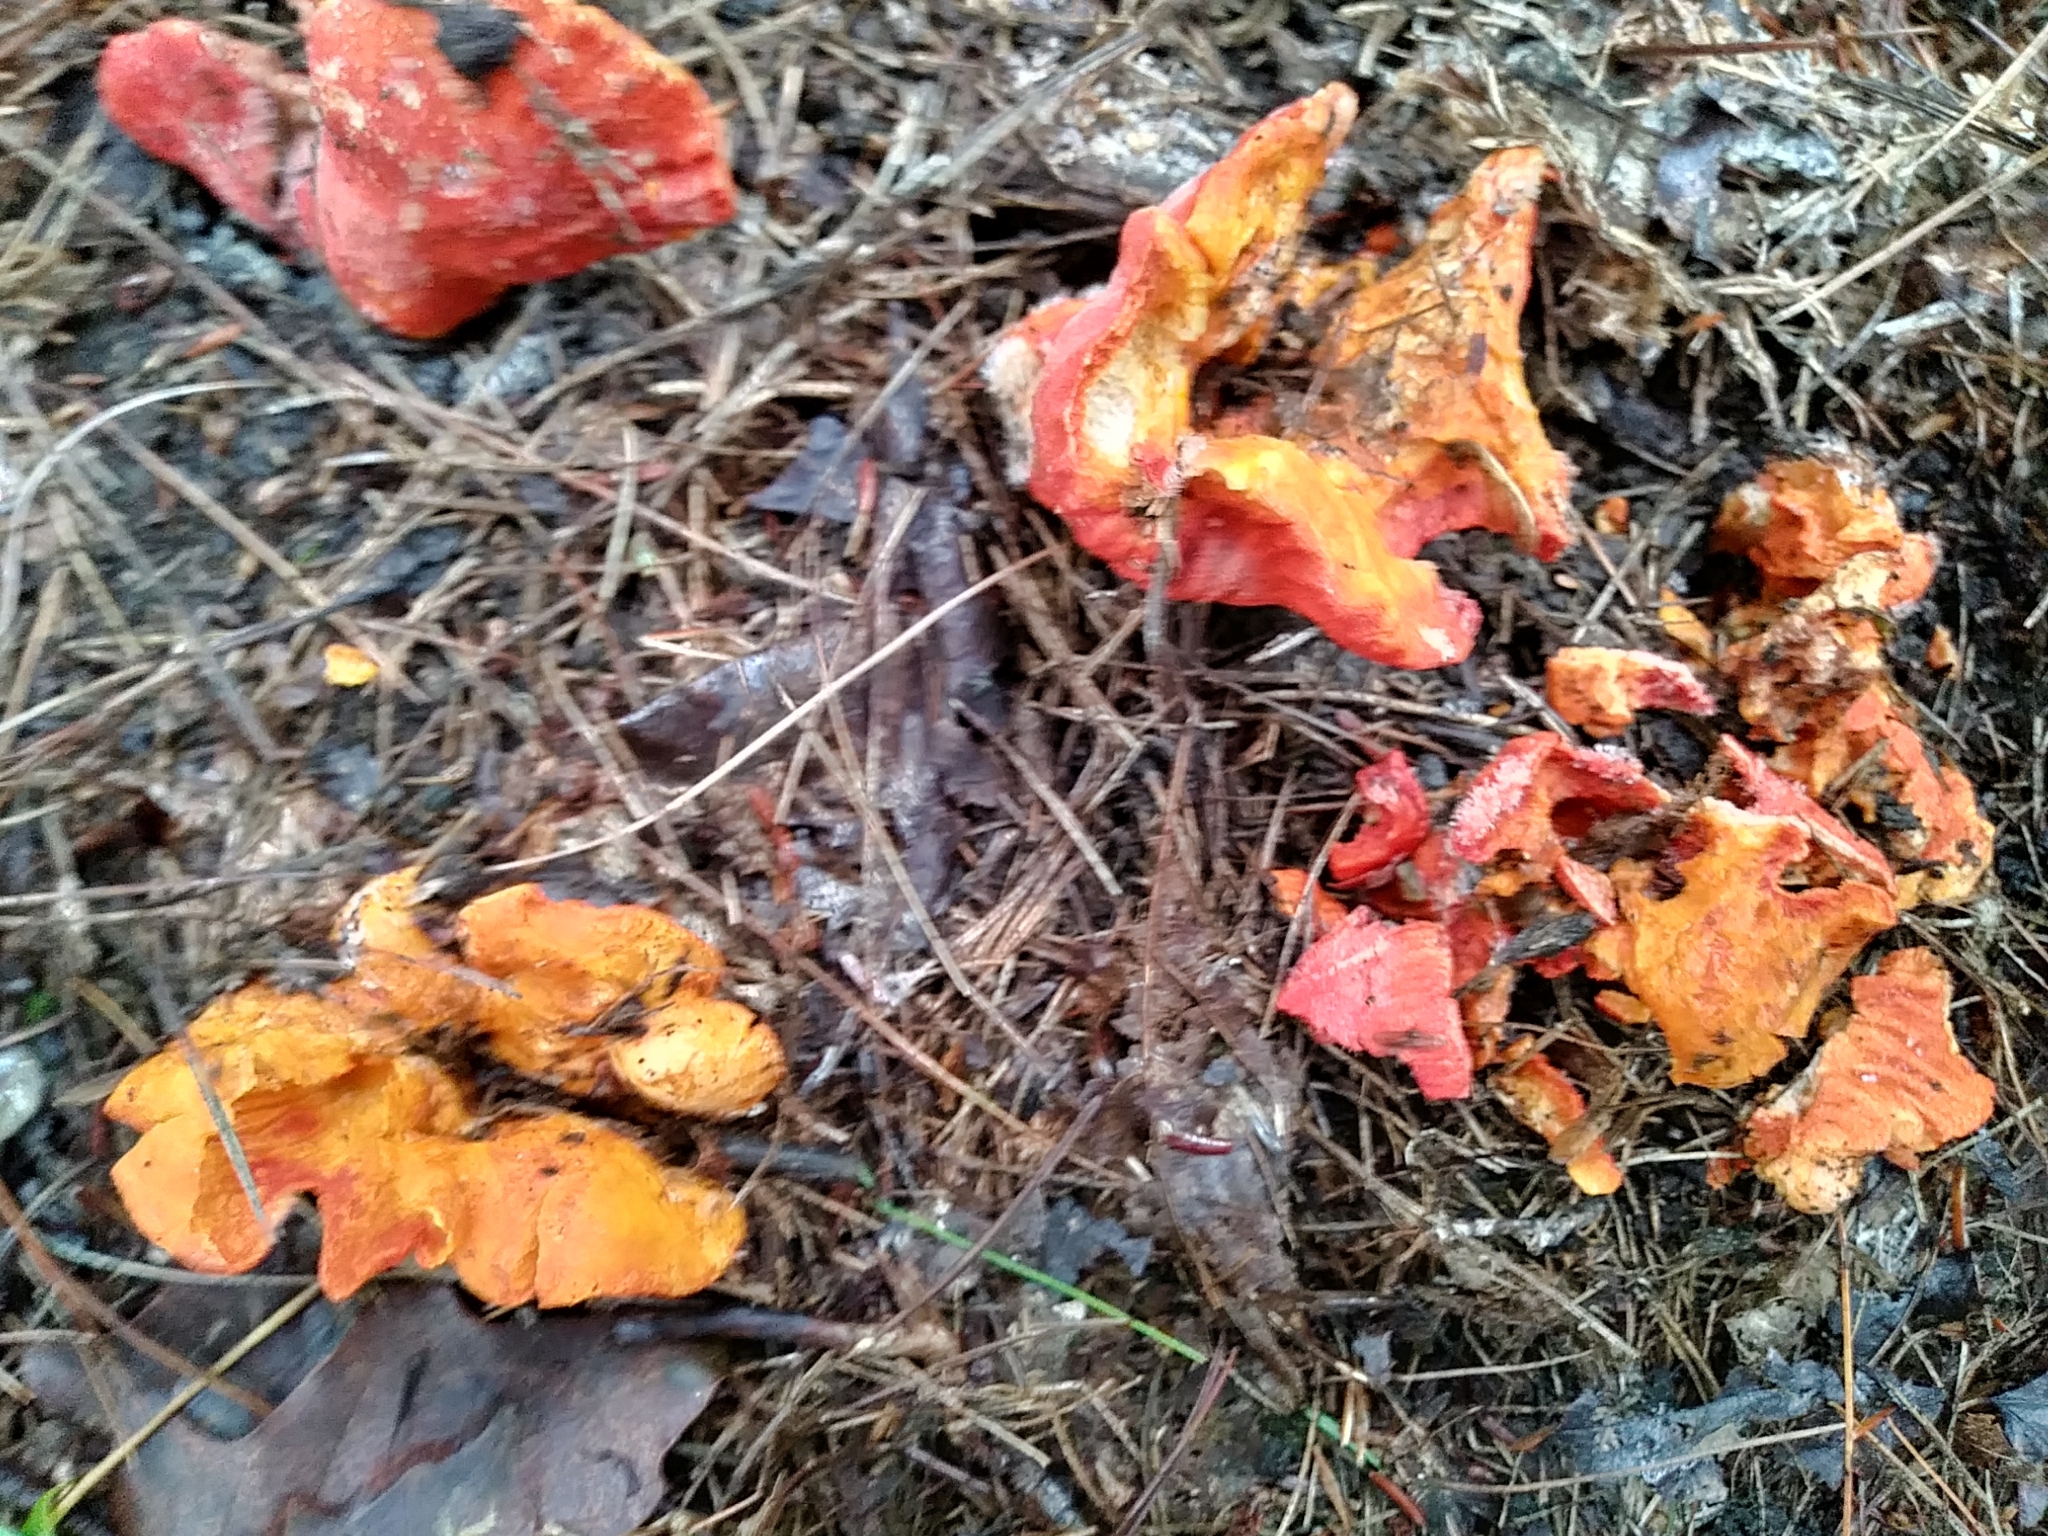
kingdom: Fungi
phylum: Ascomycota
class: Sordariomycetes
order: Hypocreales
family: Hypocreaceae
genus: Hypomyces
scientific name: Hypomyces lactifluorum
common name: Lobster mushroom
